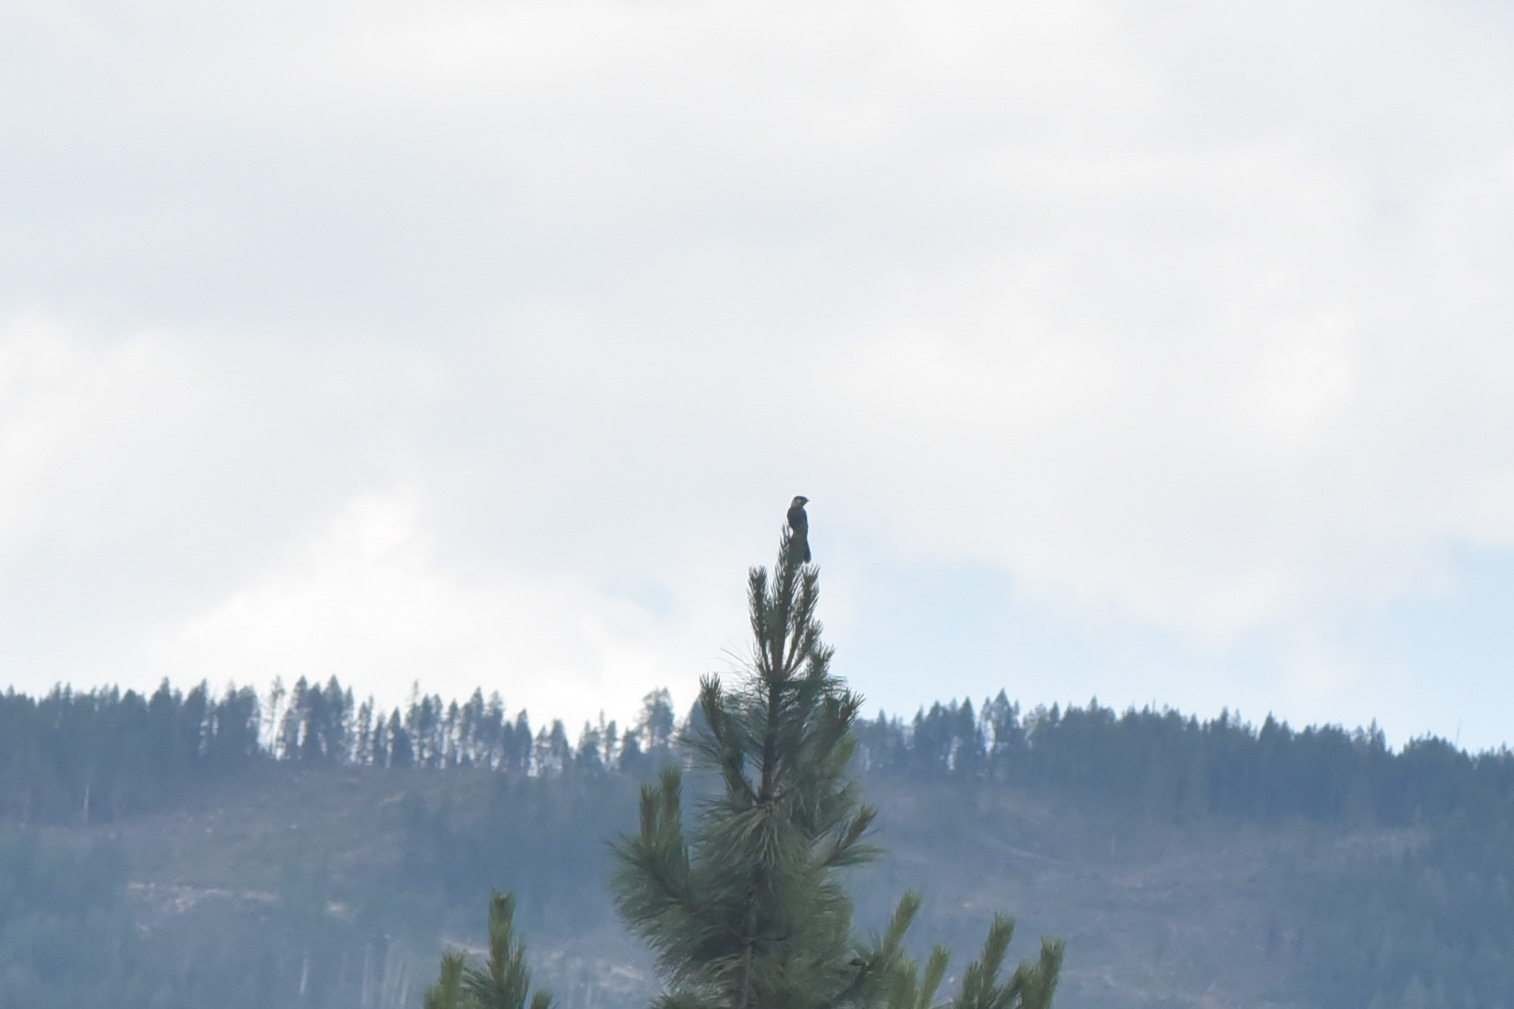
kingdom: Animalia
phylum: Chordata
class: Aves
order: Passeriformes
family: Corvidae
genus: Perisoreus
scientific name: Perisoreus canadensis
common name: Gray jay
